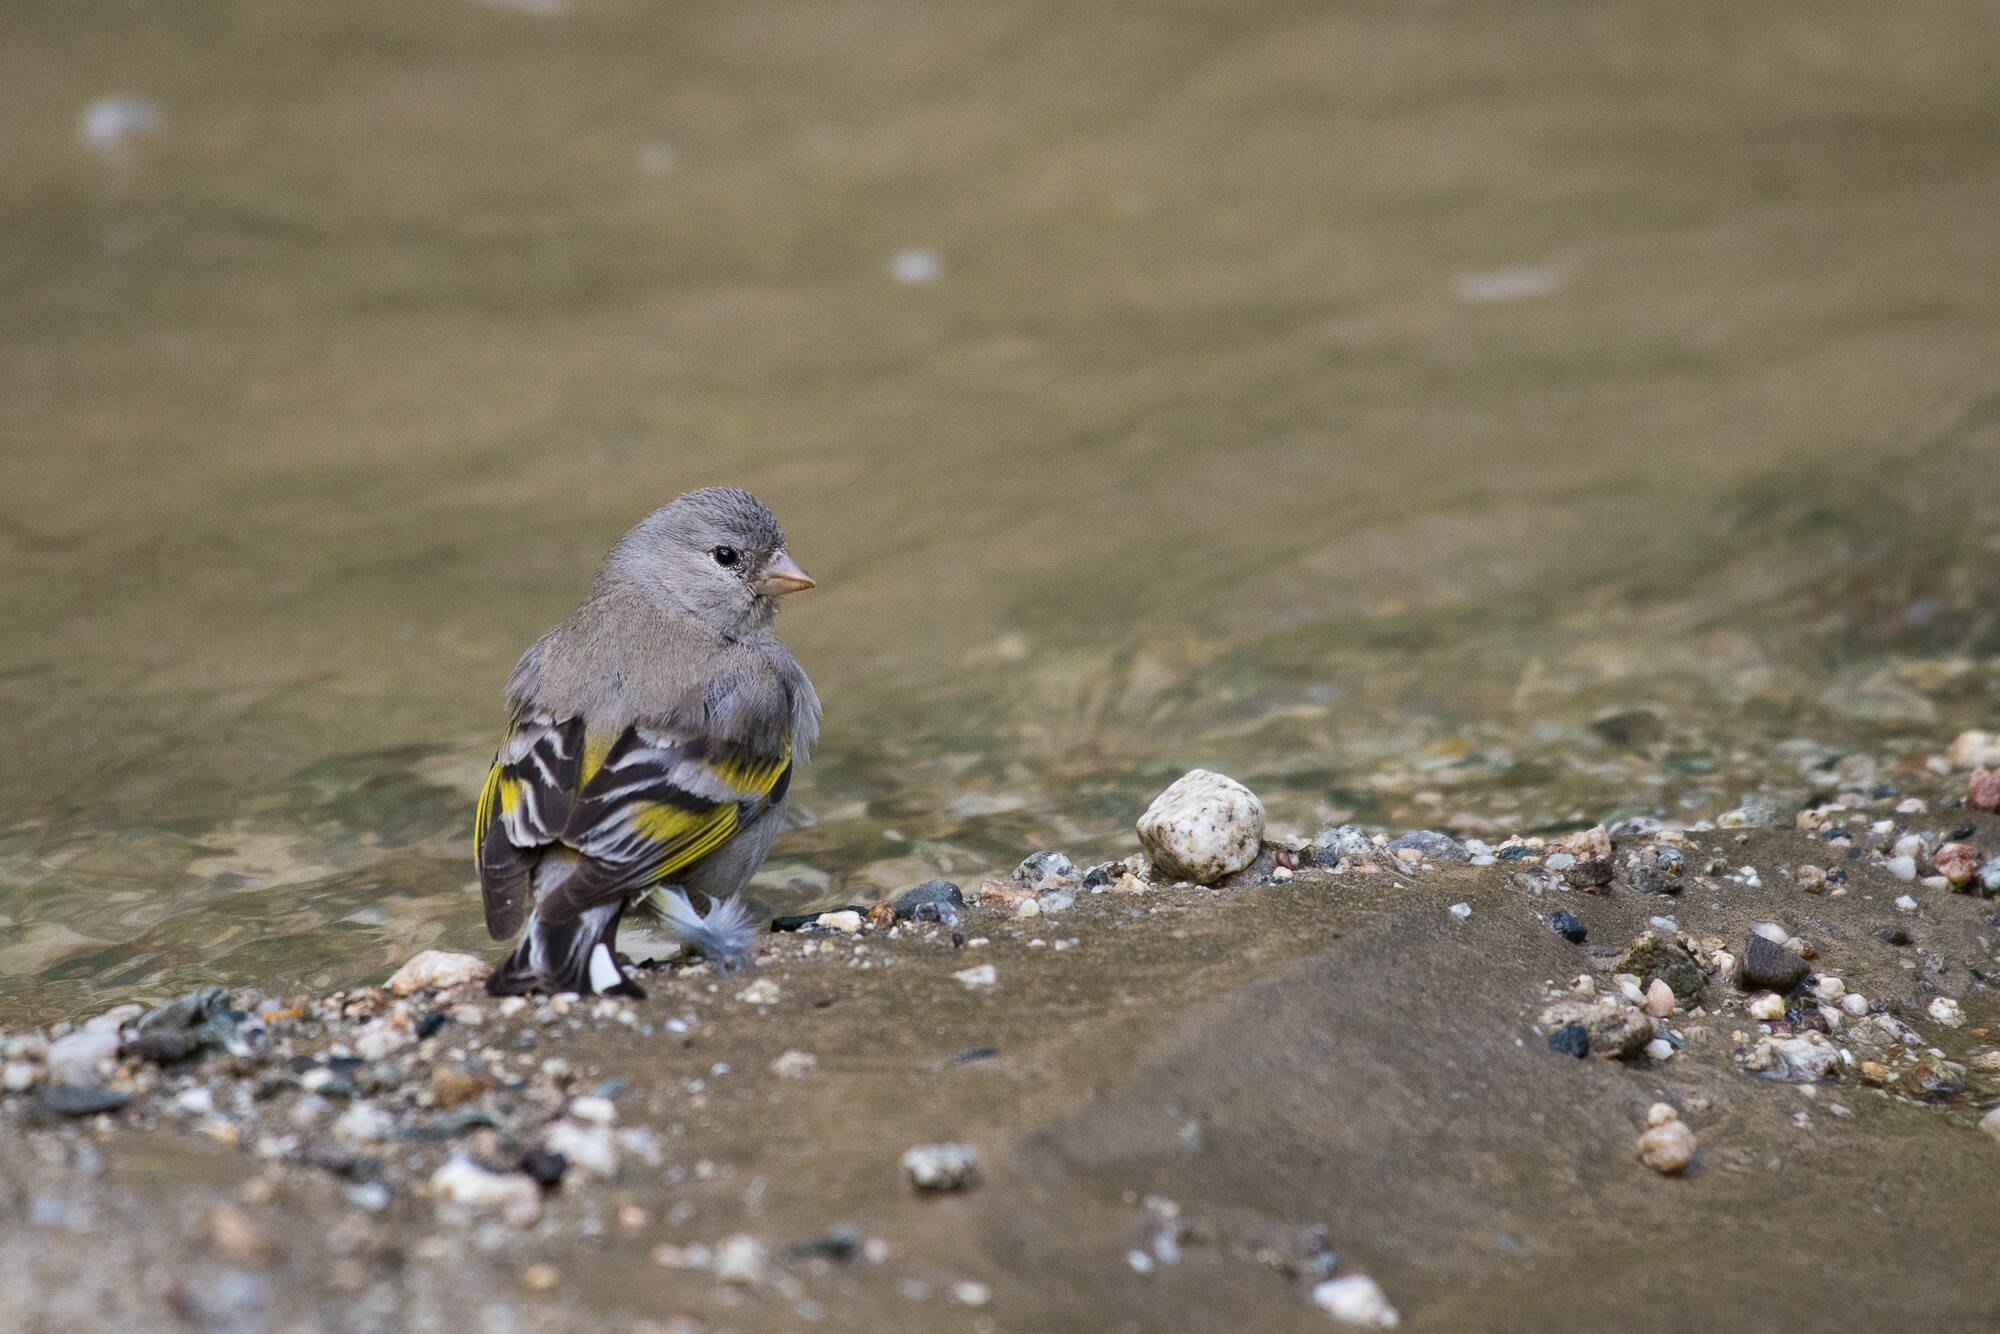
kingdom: Animalia
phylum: Chordata
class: Aves
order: Passeriformes
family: Fringillidae
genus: Spinus
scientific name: Spinus lawrencei
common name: Lawrence's goldfinch
